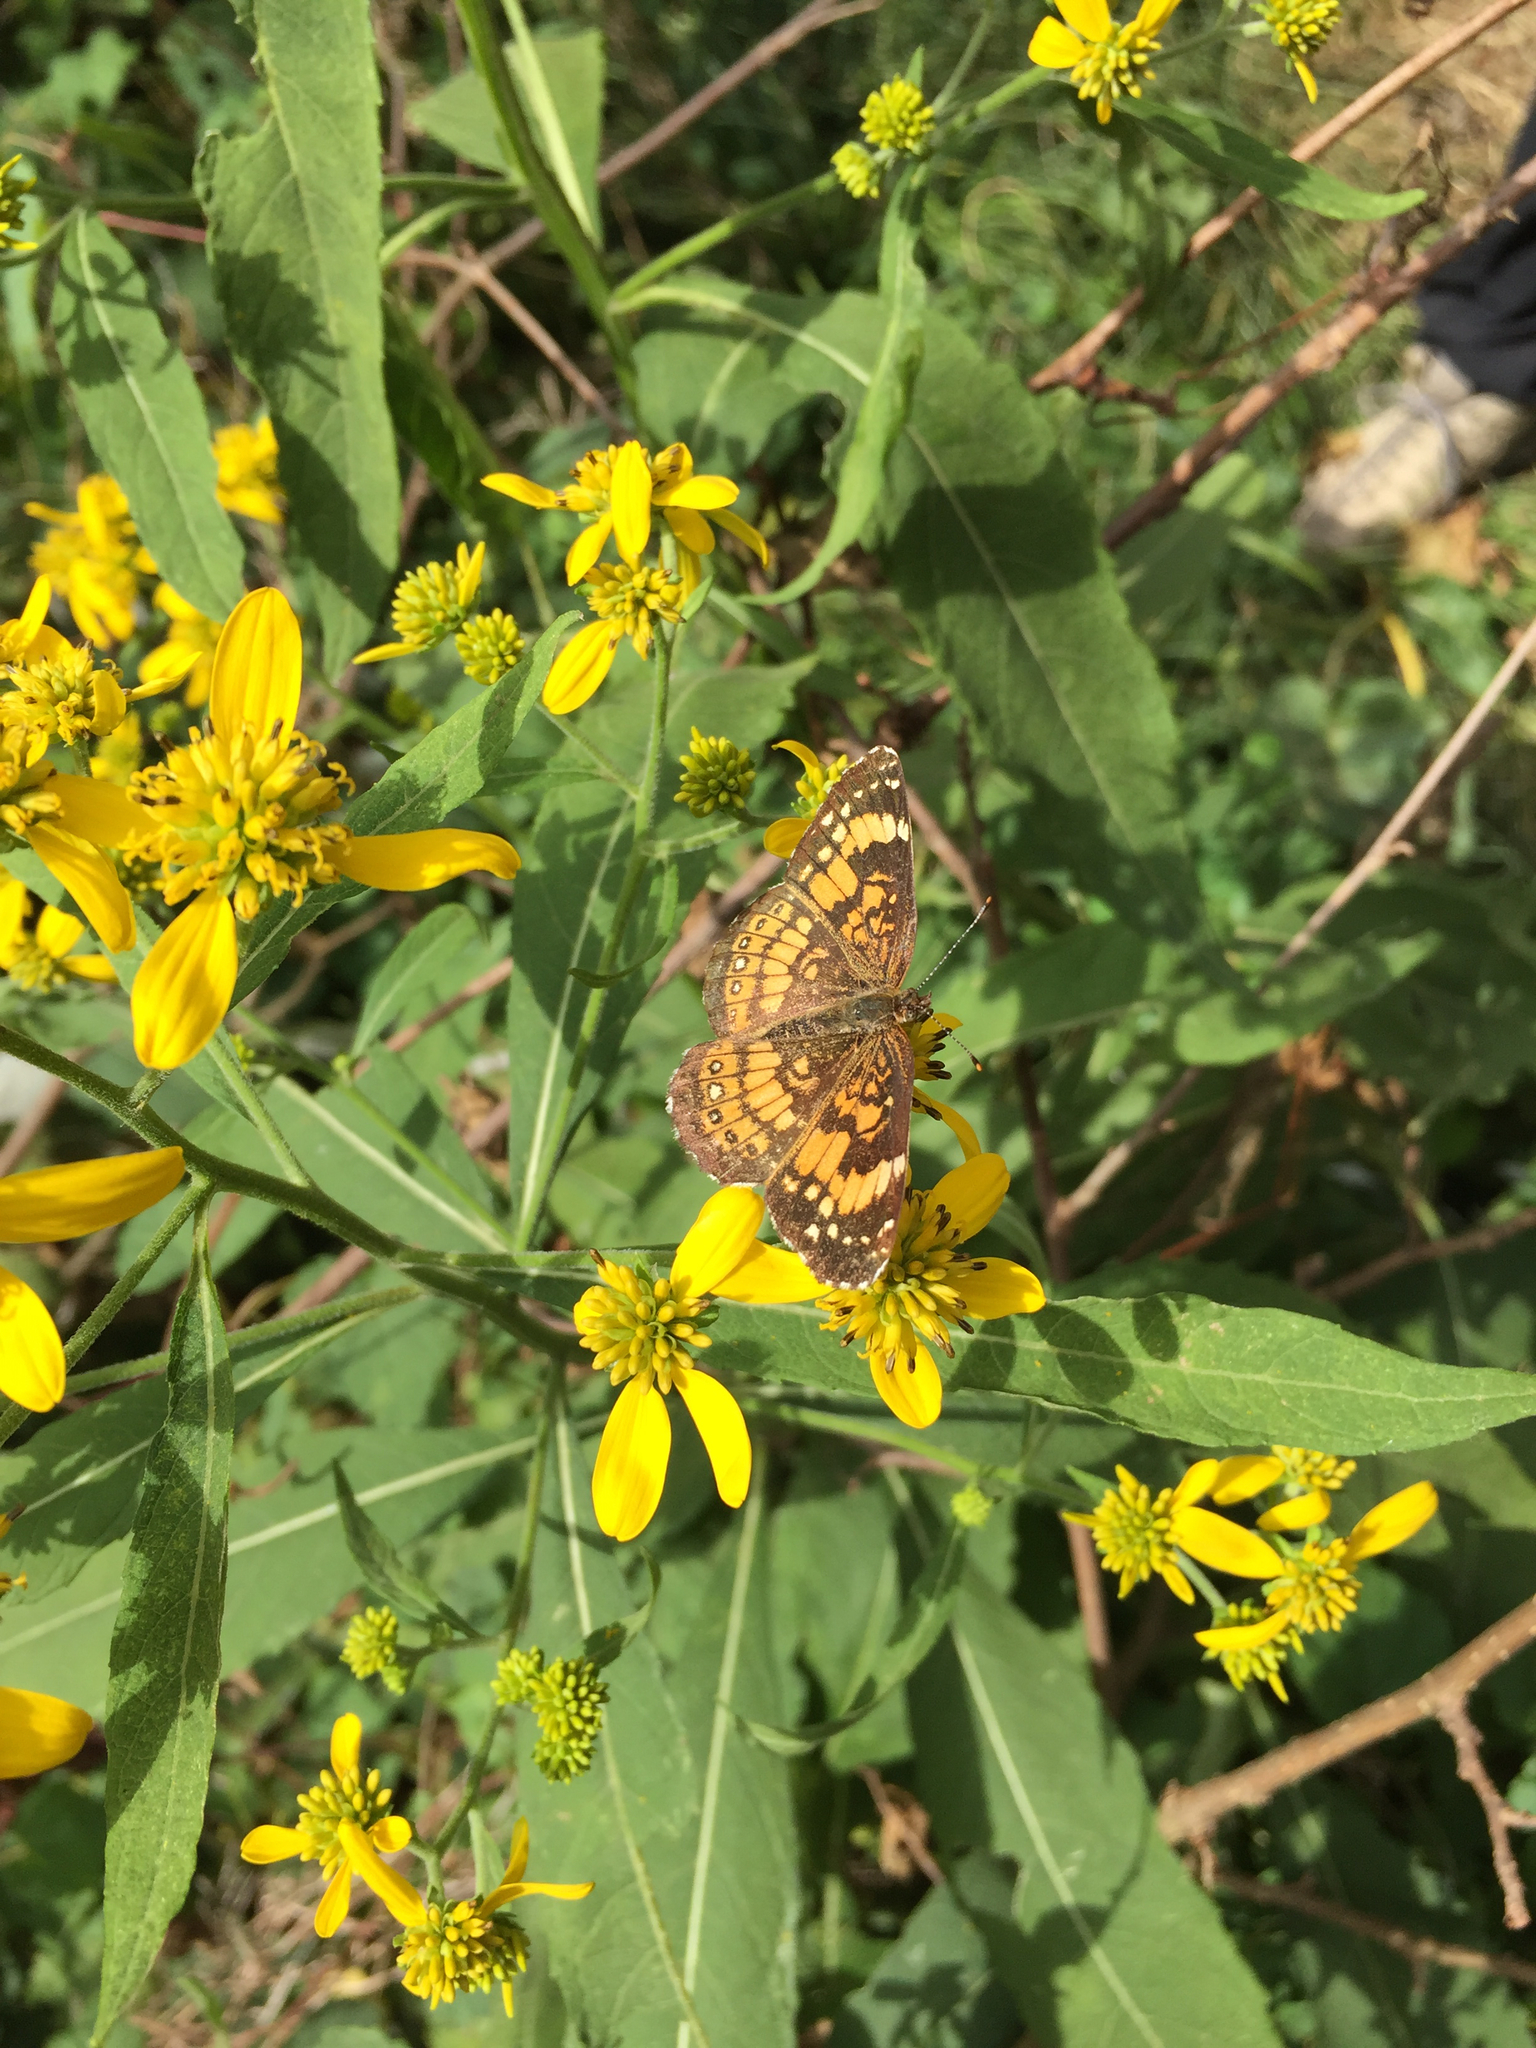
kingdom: Animalia
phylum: Arthropoda
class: Insecta
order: Lepidoptera
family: Nymphalidae
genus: Chlosyne
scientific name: Chlosyne nycteis
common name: Silvery checkerspot
